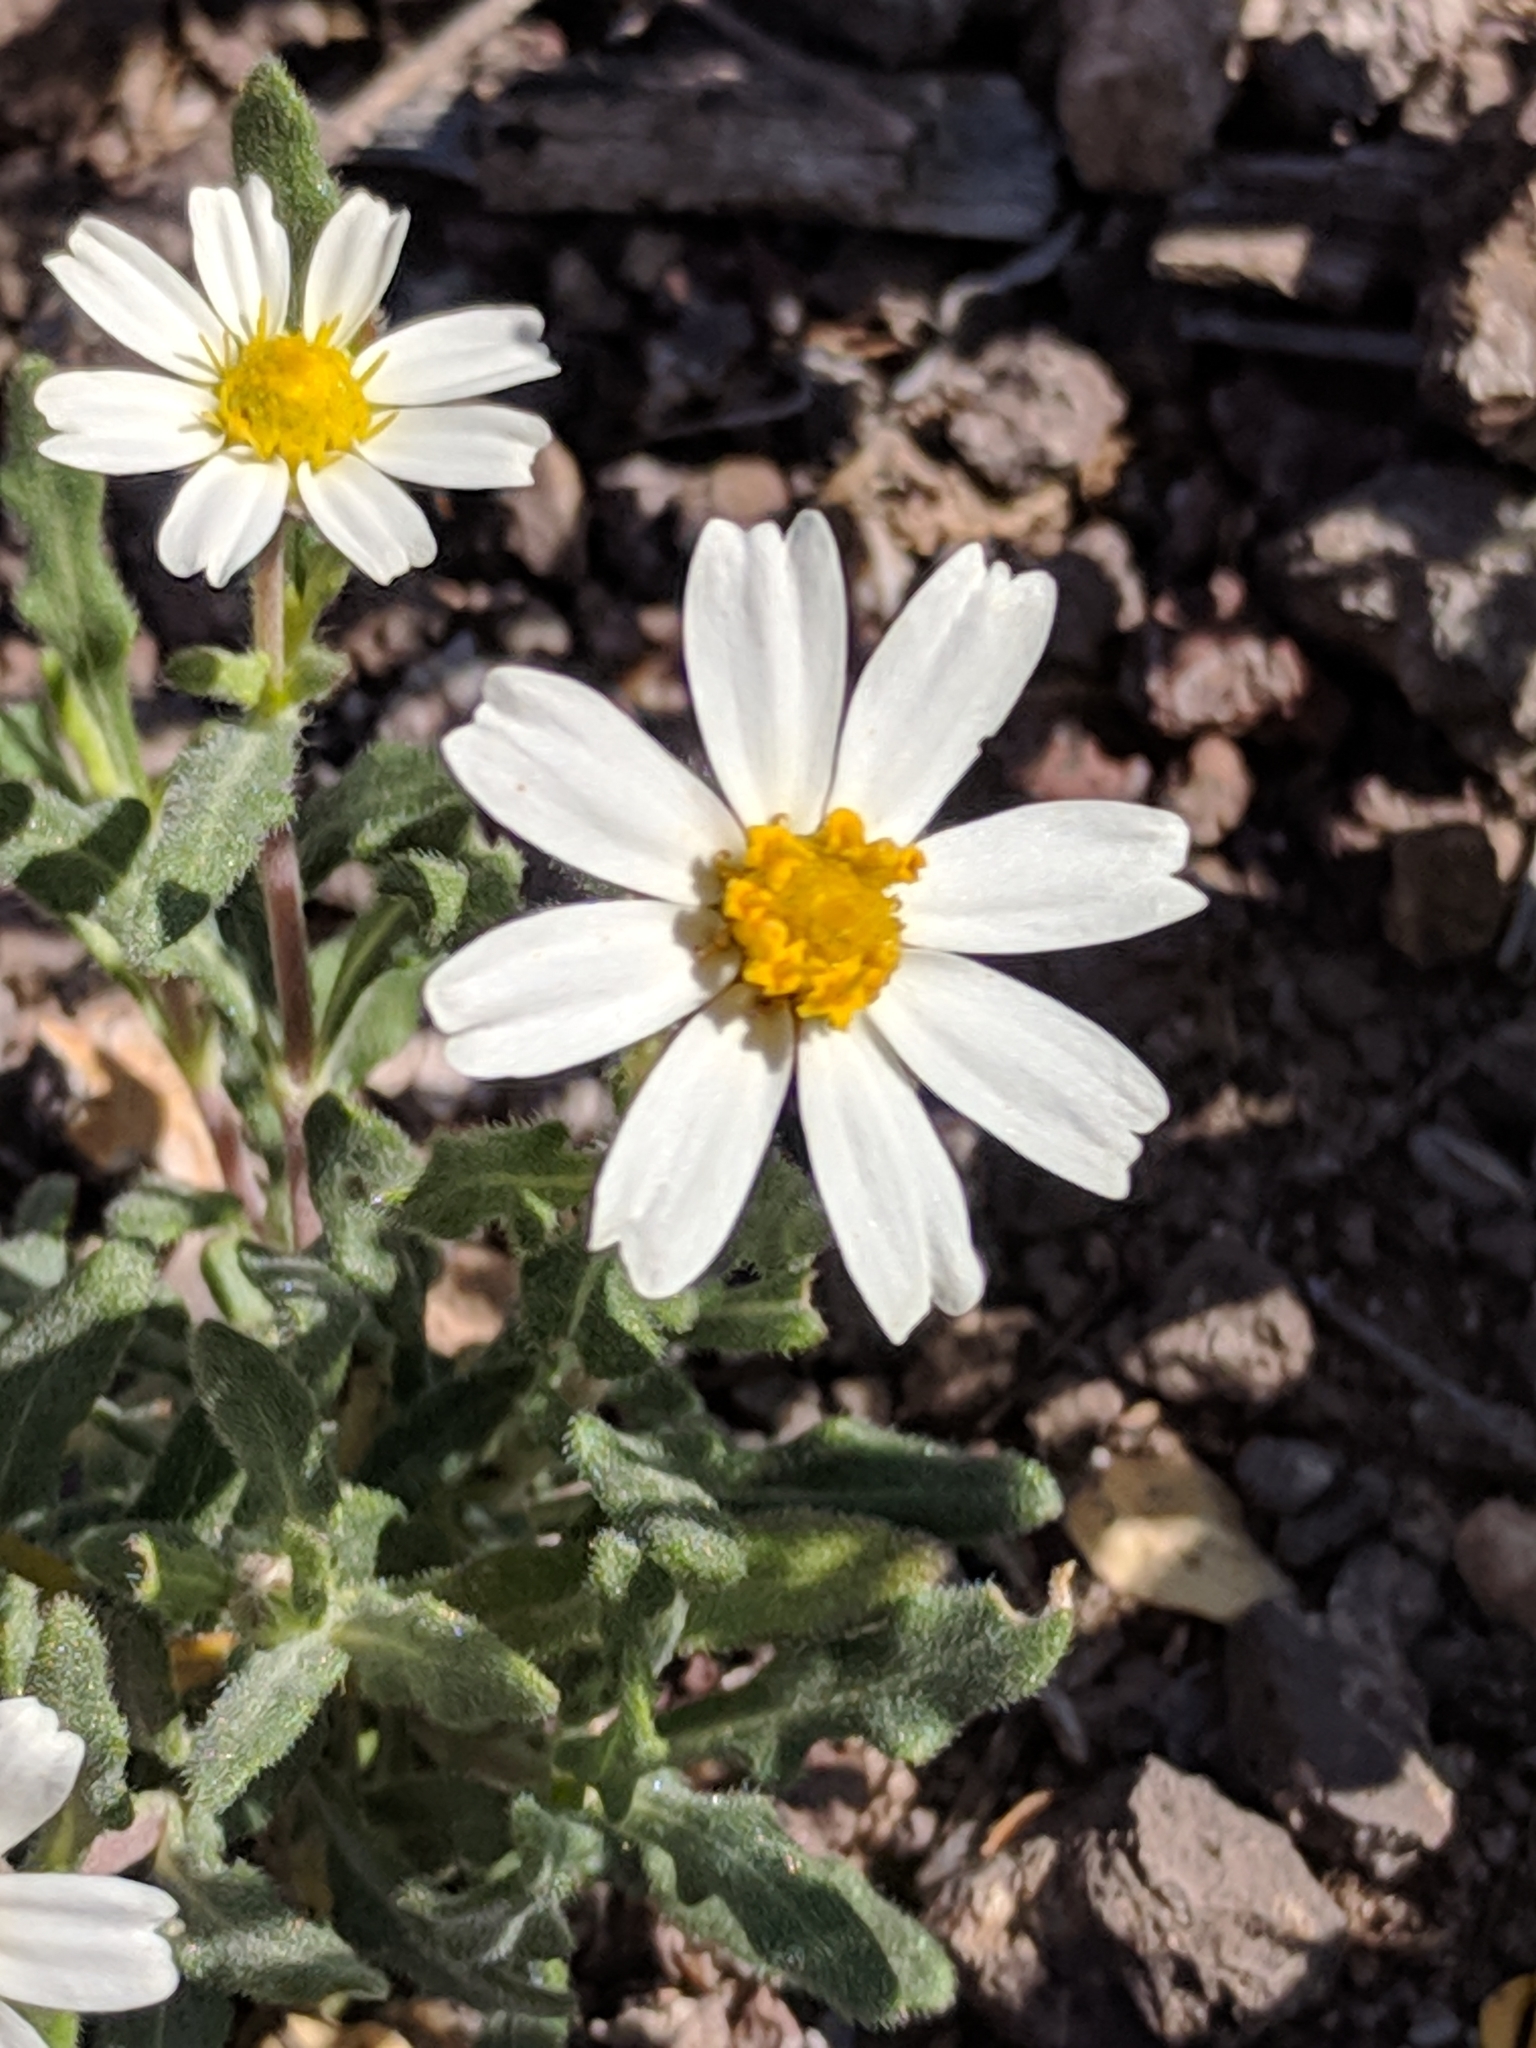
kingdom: Plantae
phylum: Tracheophyta
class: Magnoliopsida
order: Asterales
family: Asteraceae
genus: Melampodium
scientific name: Melampodium leucanthum
